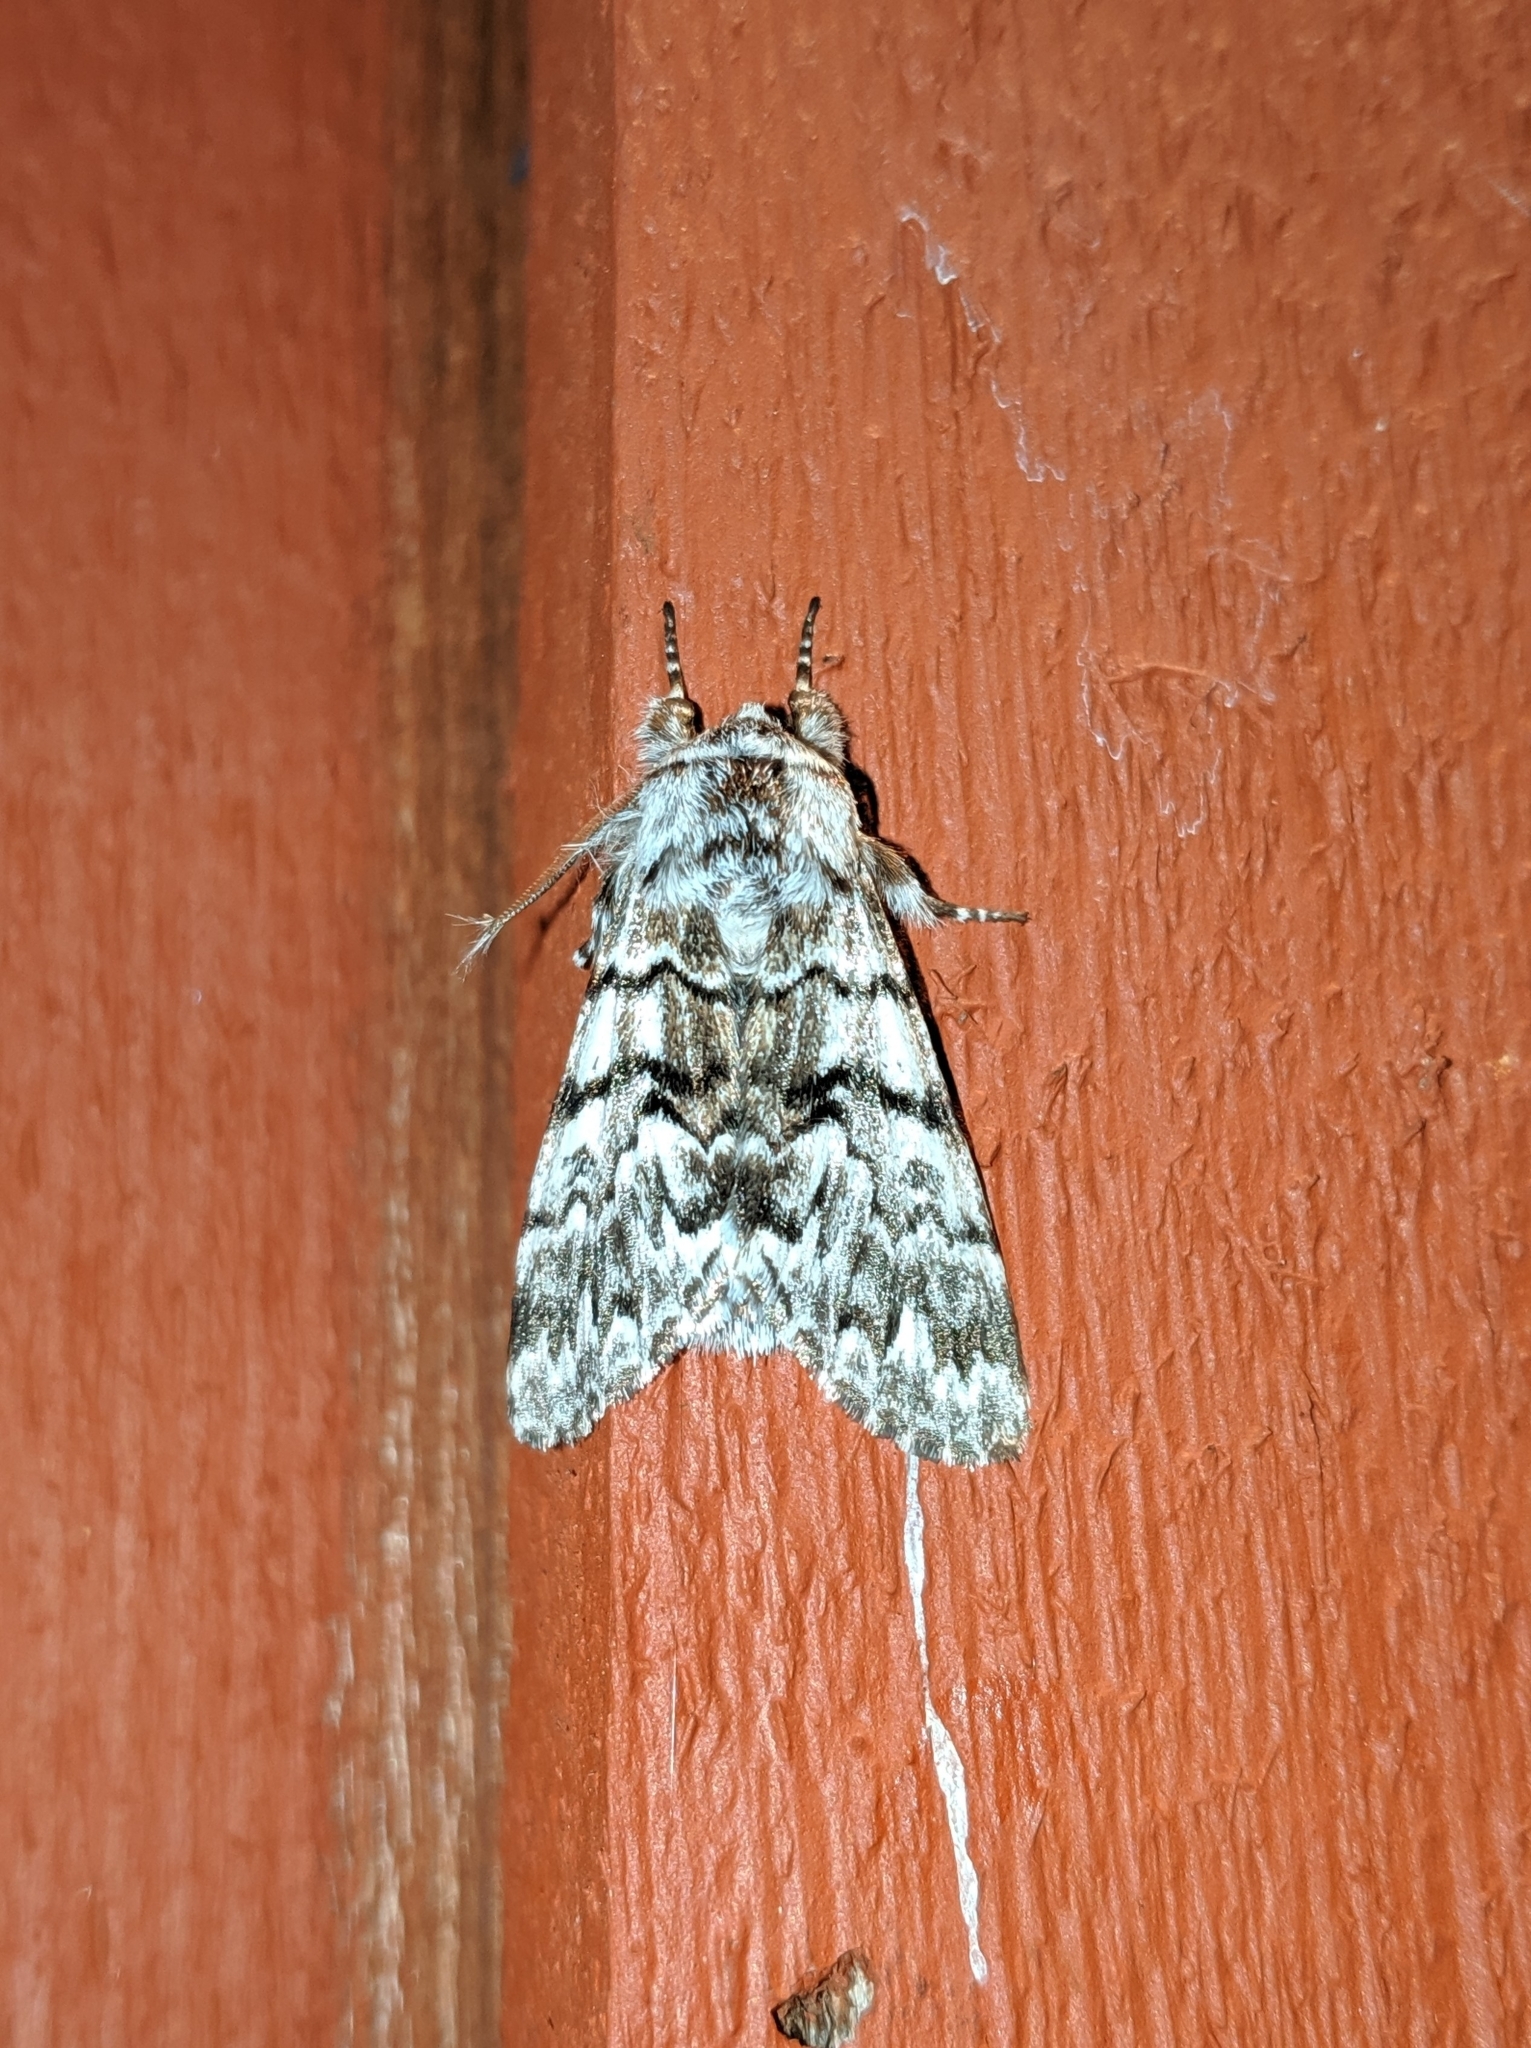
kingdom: Animalia
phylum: Arthropoda
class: Insecta
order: Lepidoptera
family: Noctuidae
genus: Panthea
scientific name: Panthea virginarius
